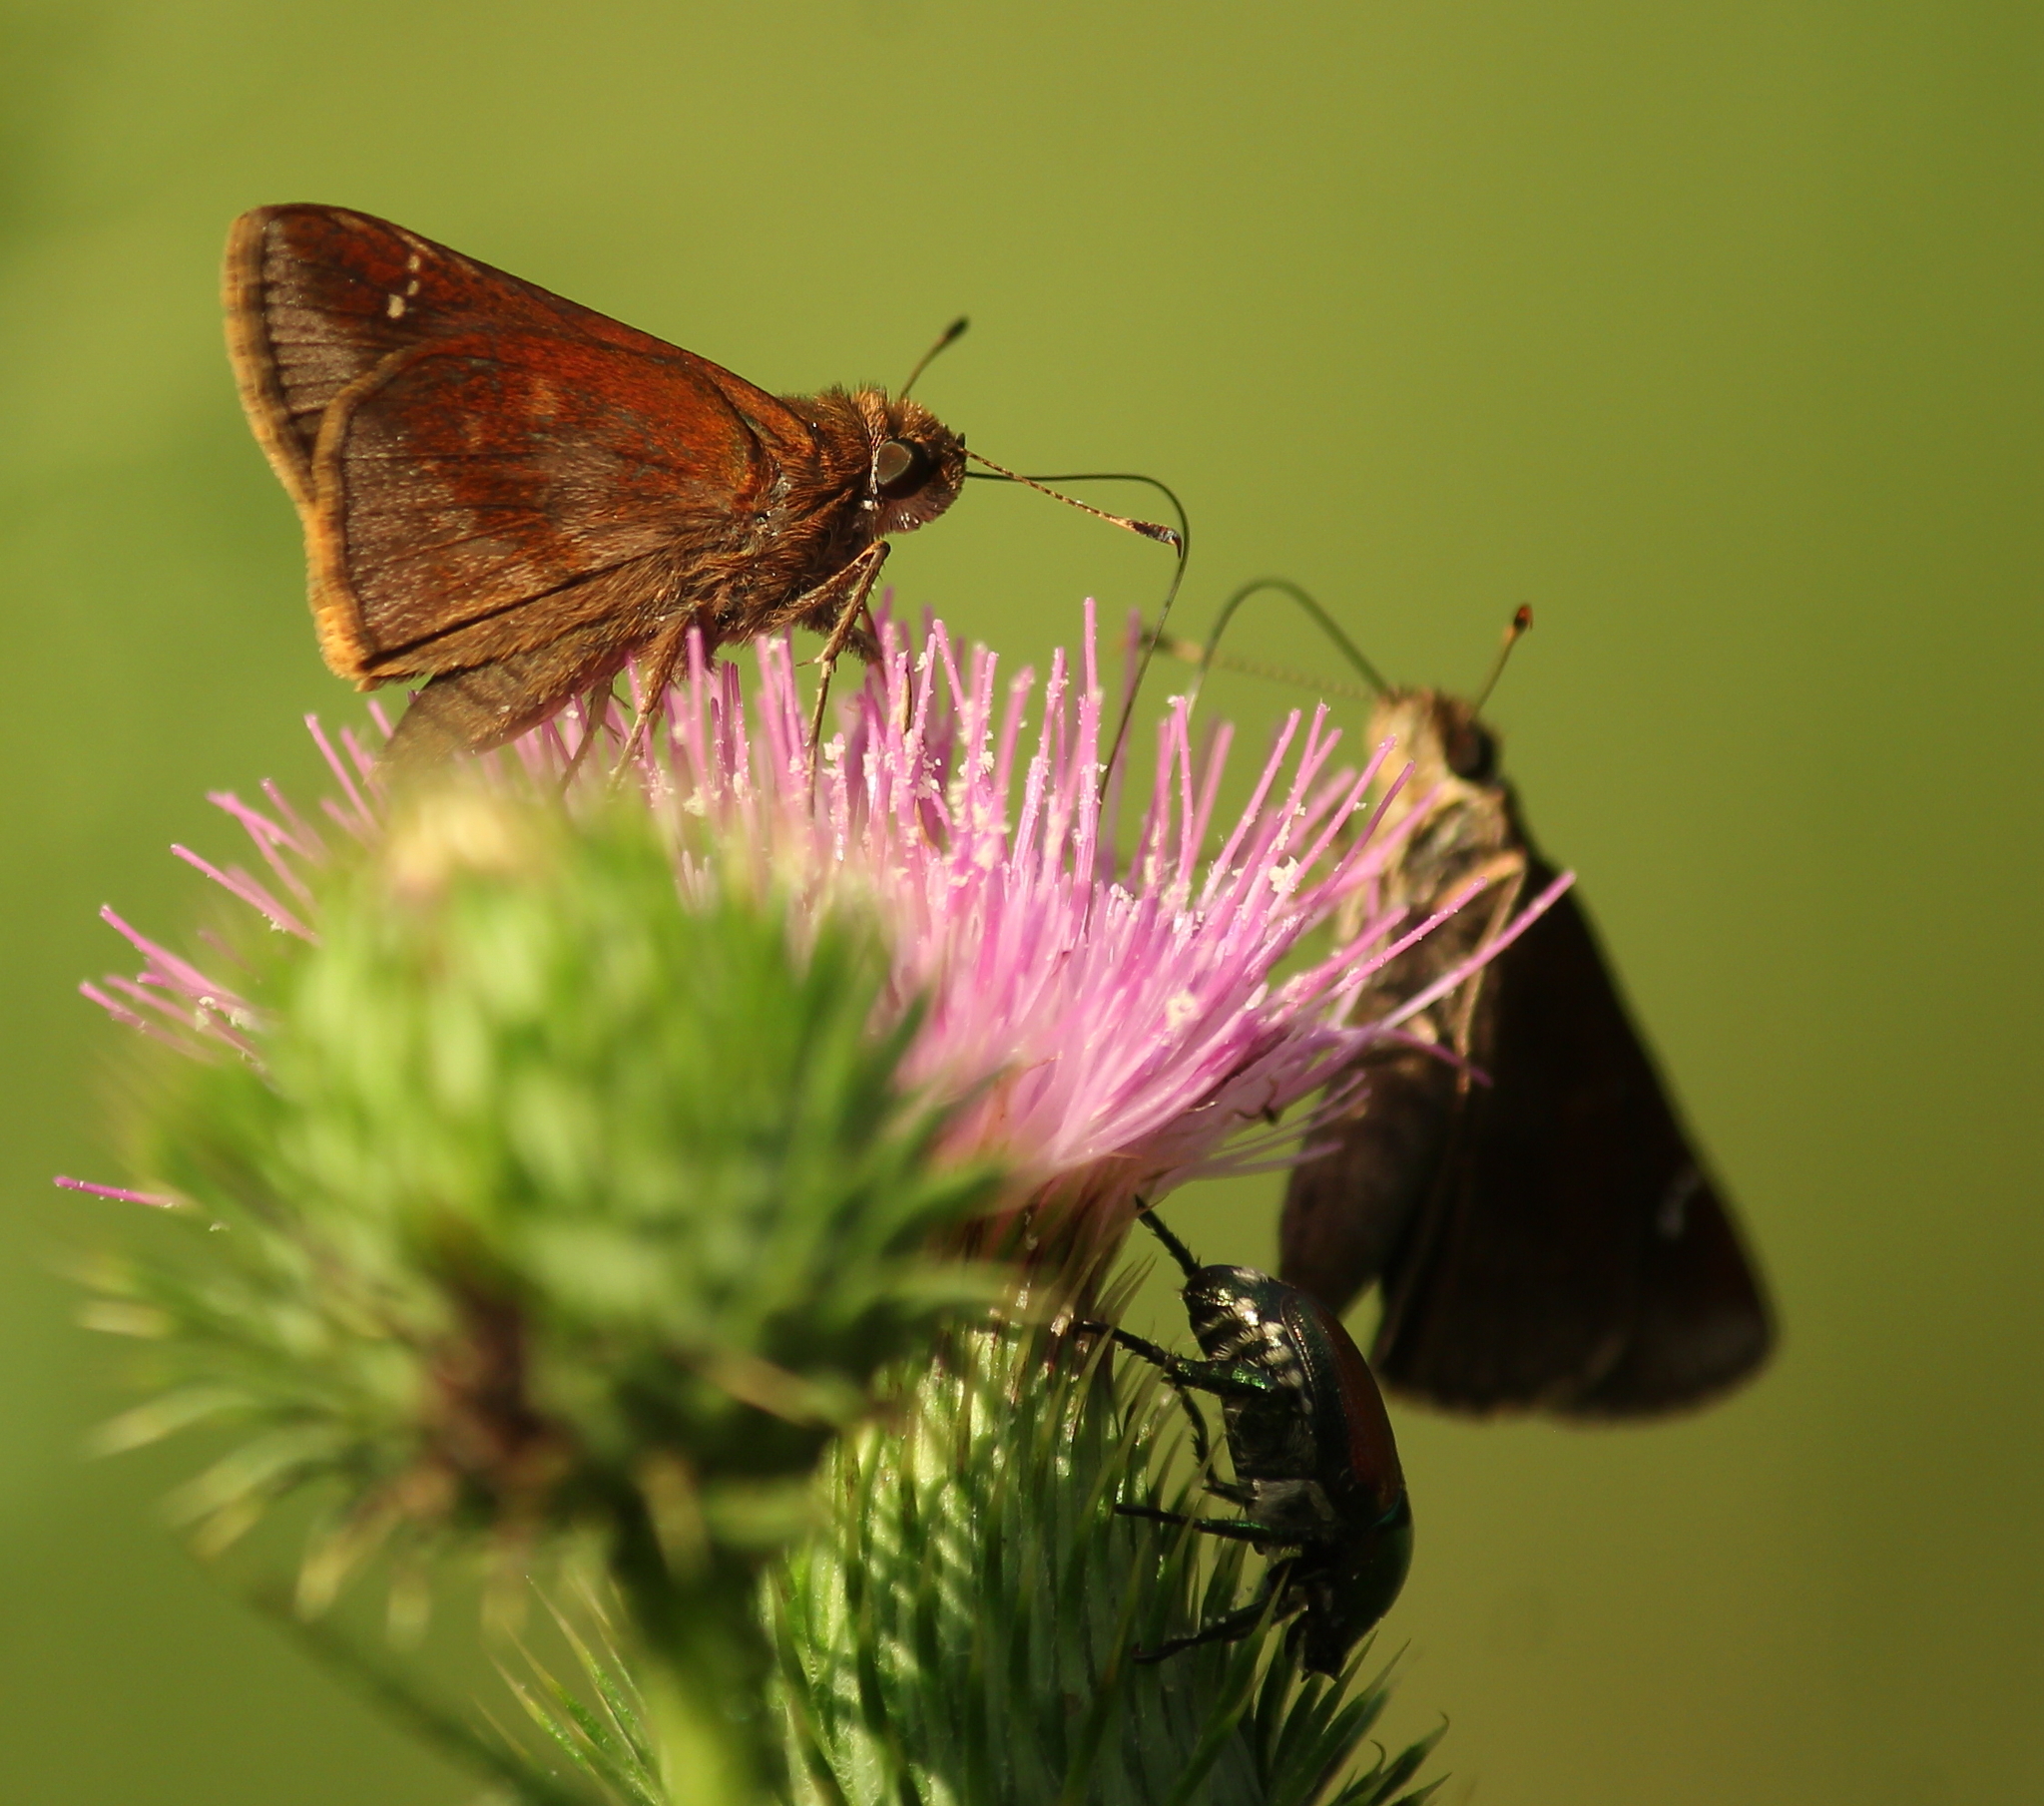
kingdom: Animalia
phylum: Arthropoda
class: Insecta
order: Lepidoptera
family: Hesperiidae
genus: Lerema
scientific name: Lerema accius
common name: Clouded skipper
